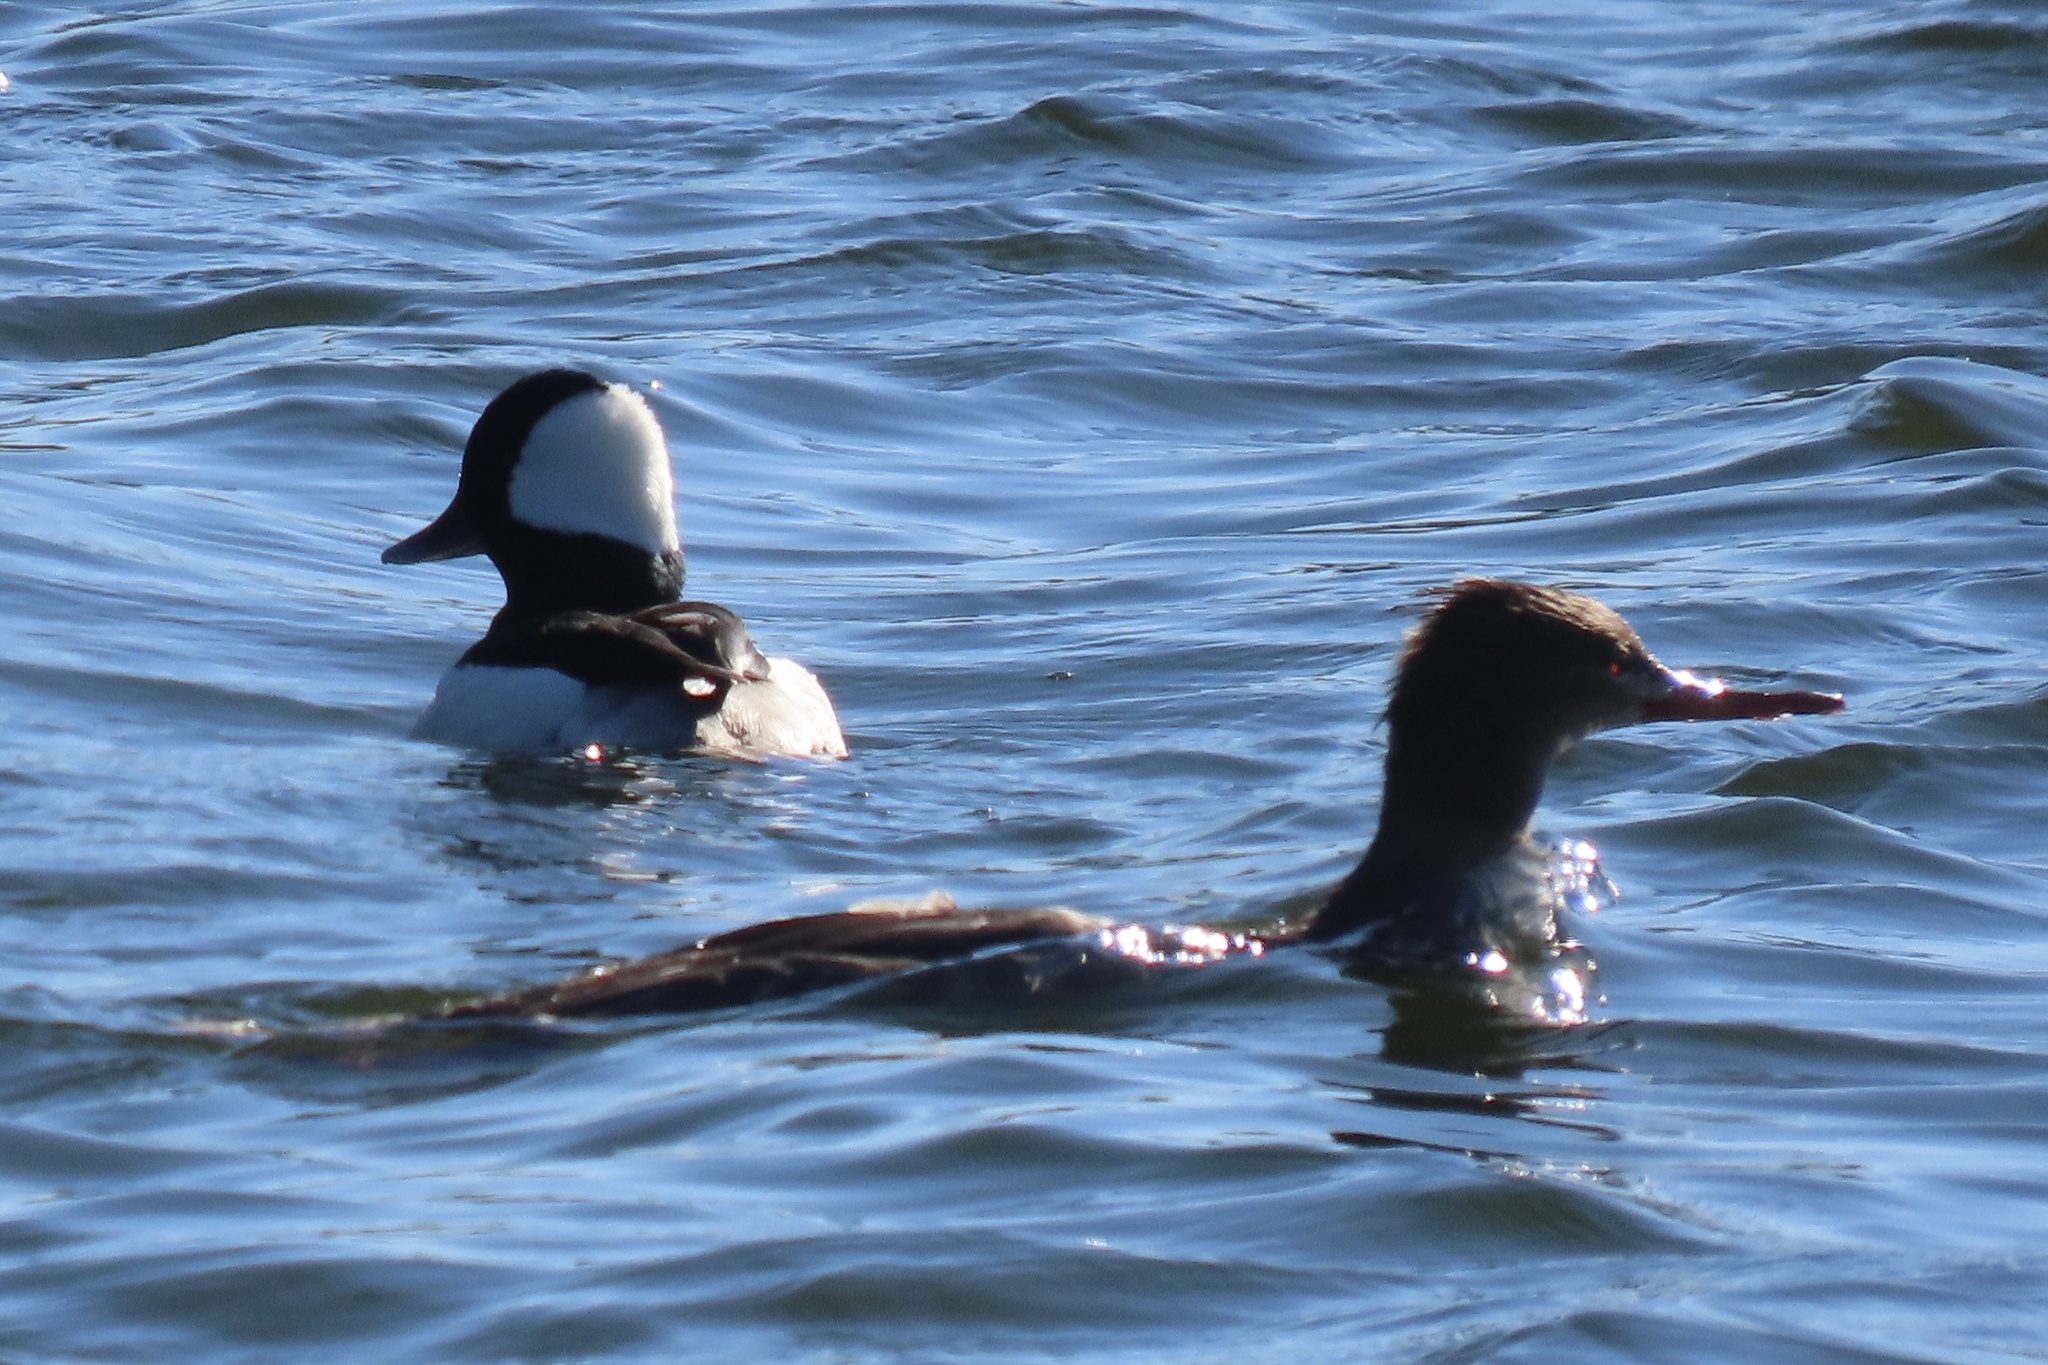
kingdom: Animalia
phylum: Chordata
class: Aves
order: Anseriformes
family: Anatidae
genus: Bucephala
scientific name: Bucephala albeola
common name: Bufflehead
